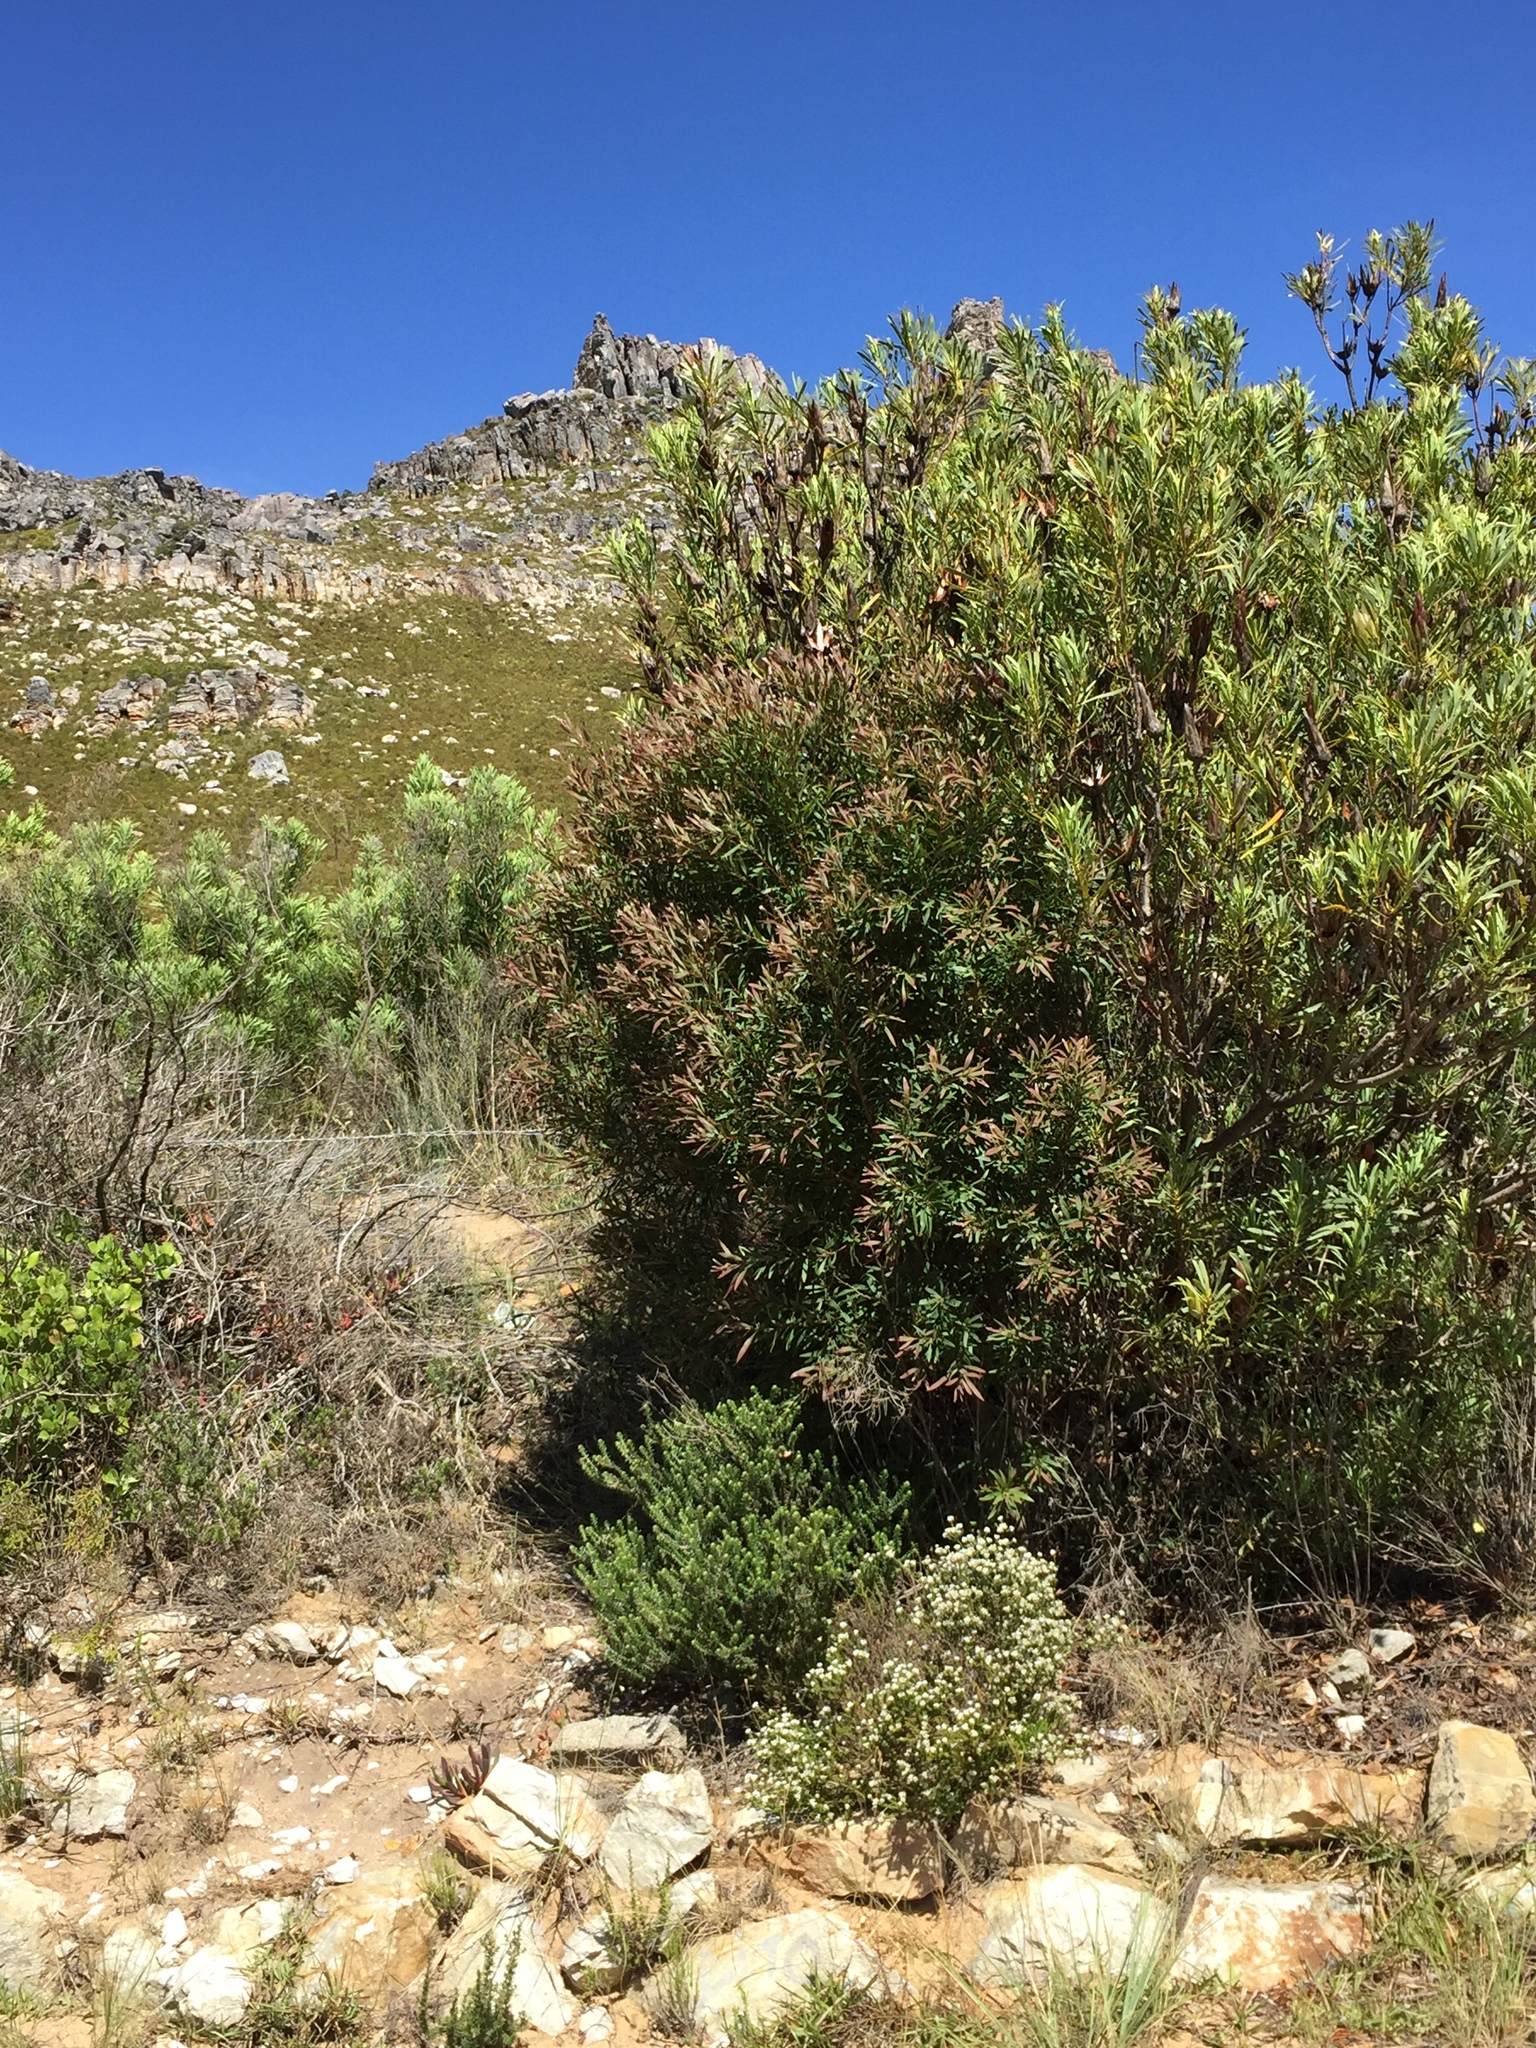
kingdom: Plantae
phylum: Tracheophyta
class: Magnoliopsida
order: Proteales
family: Proteaceae
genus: Hakea
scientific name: Hakea salicifolia
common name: Willow hakea
